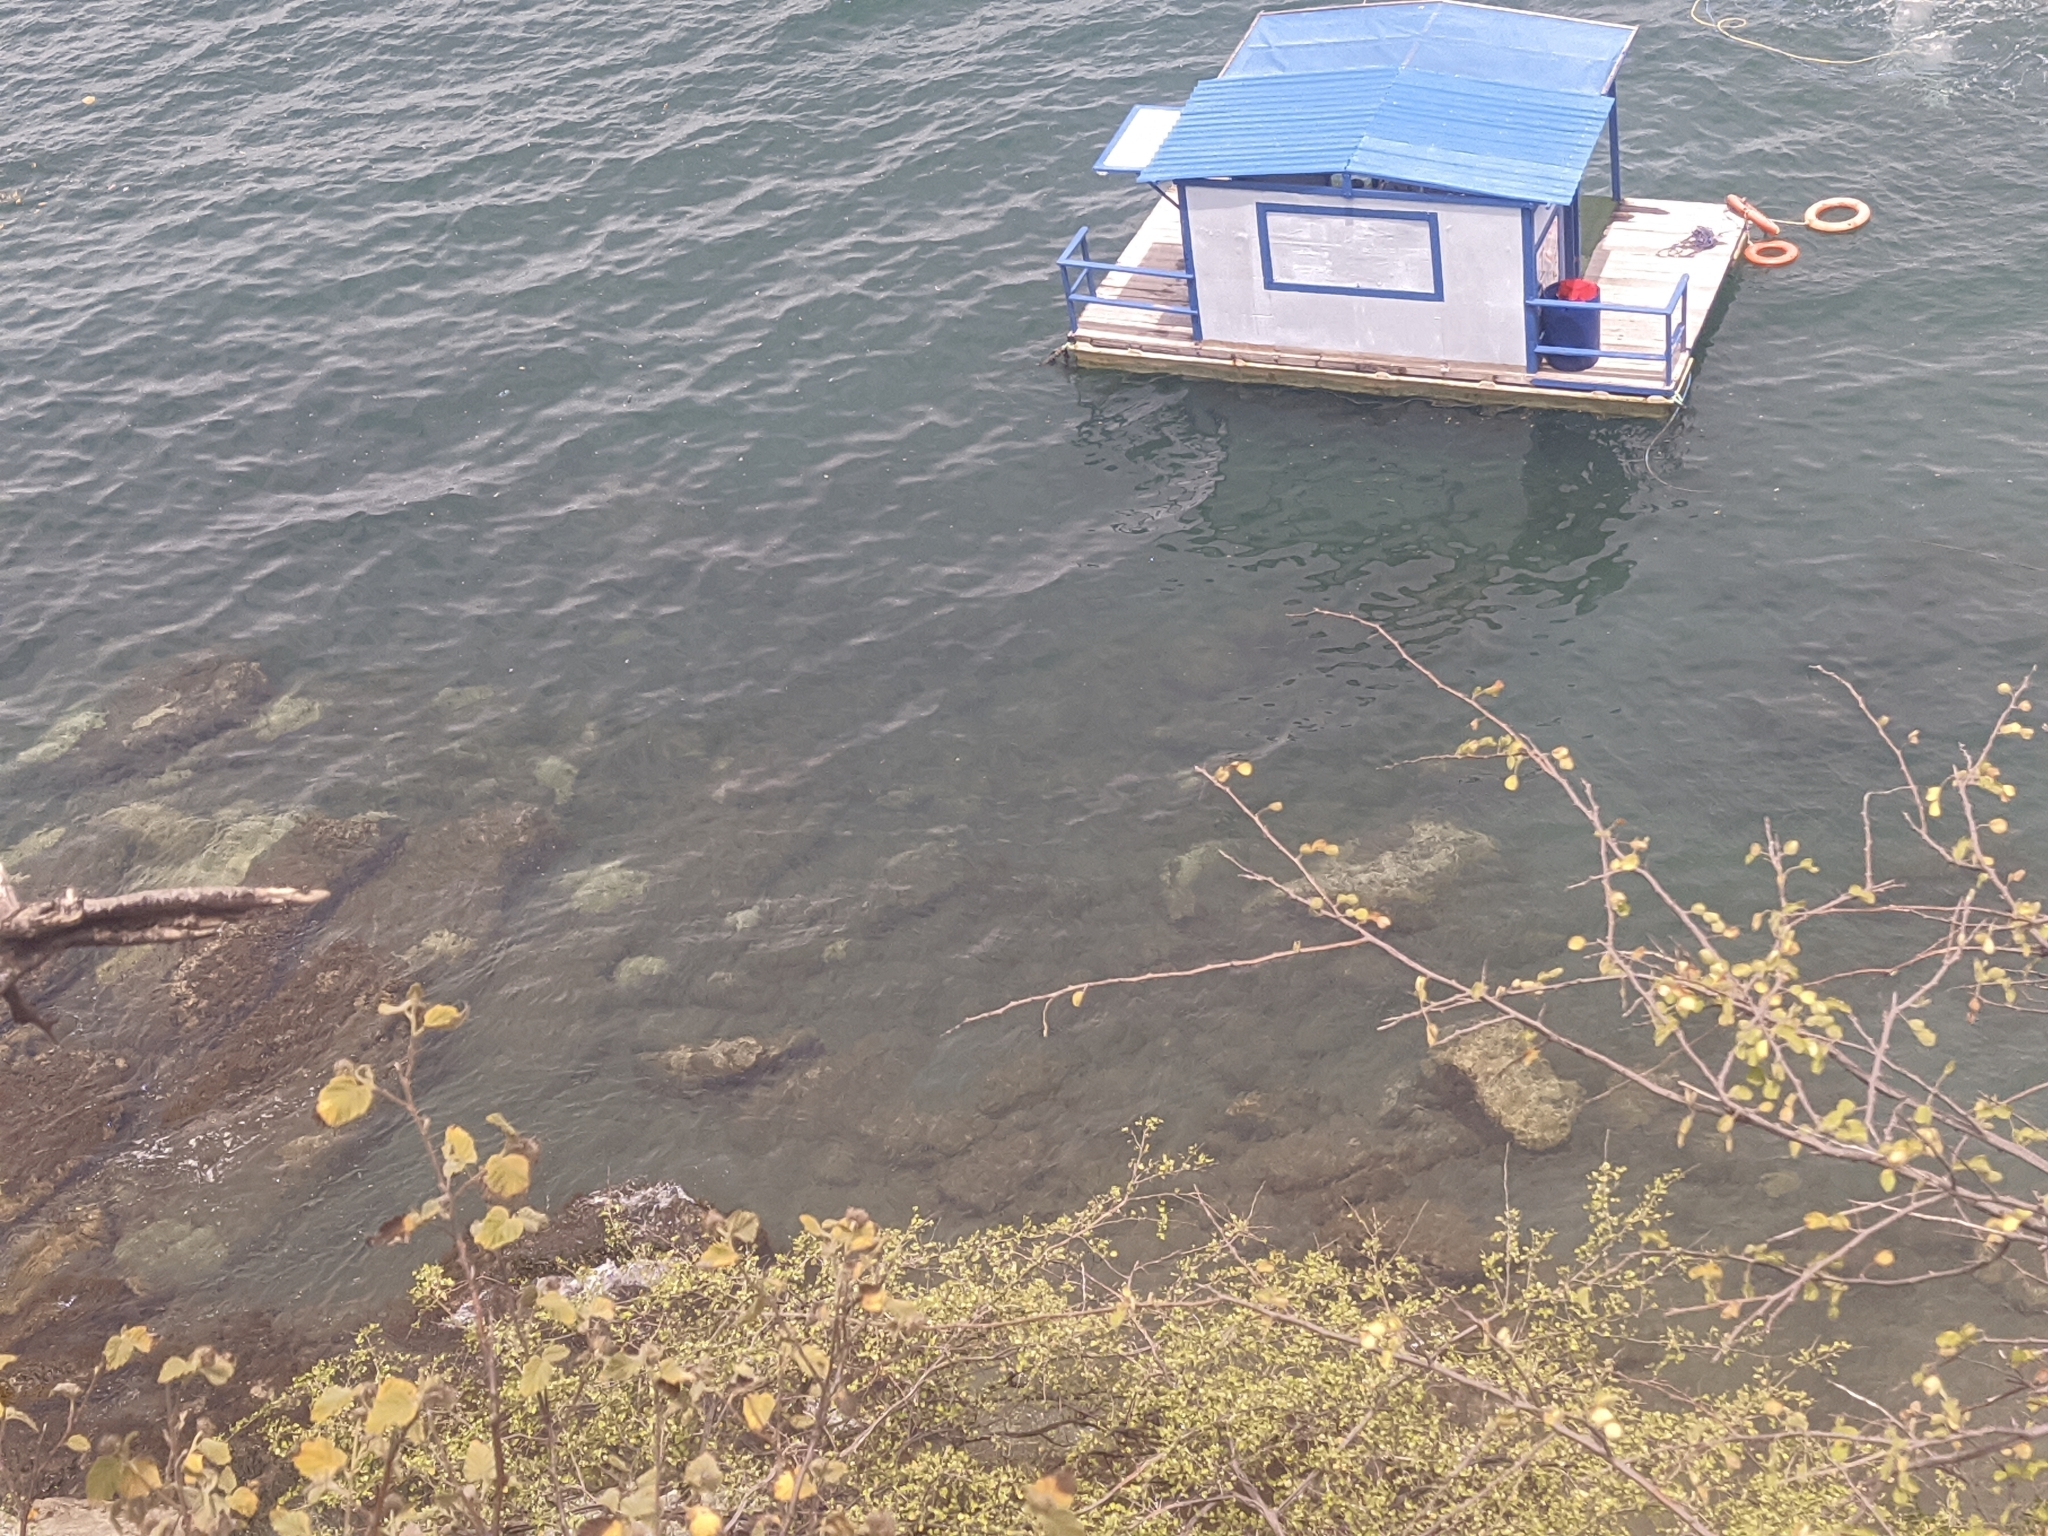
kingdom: Animalia
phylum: Cnidaria
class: Anthozoa
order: Zoantharia
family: Sphenopidae
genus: Palythoa
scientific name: Palythoa caribaeorum
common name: Encrusting colonial anemone
